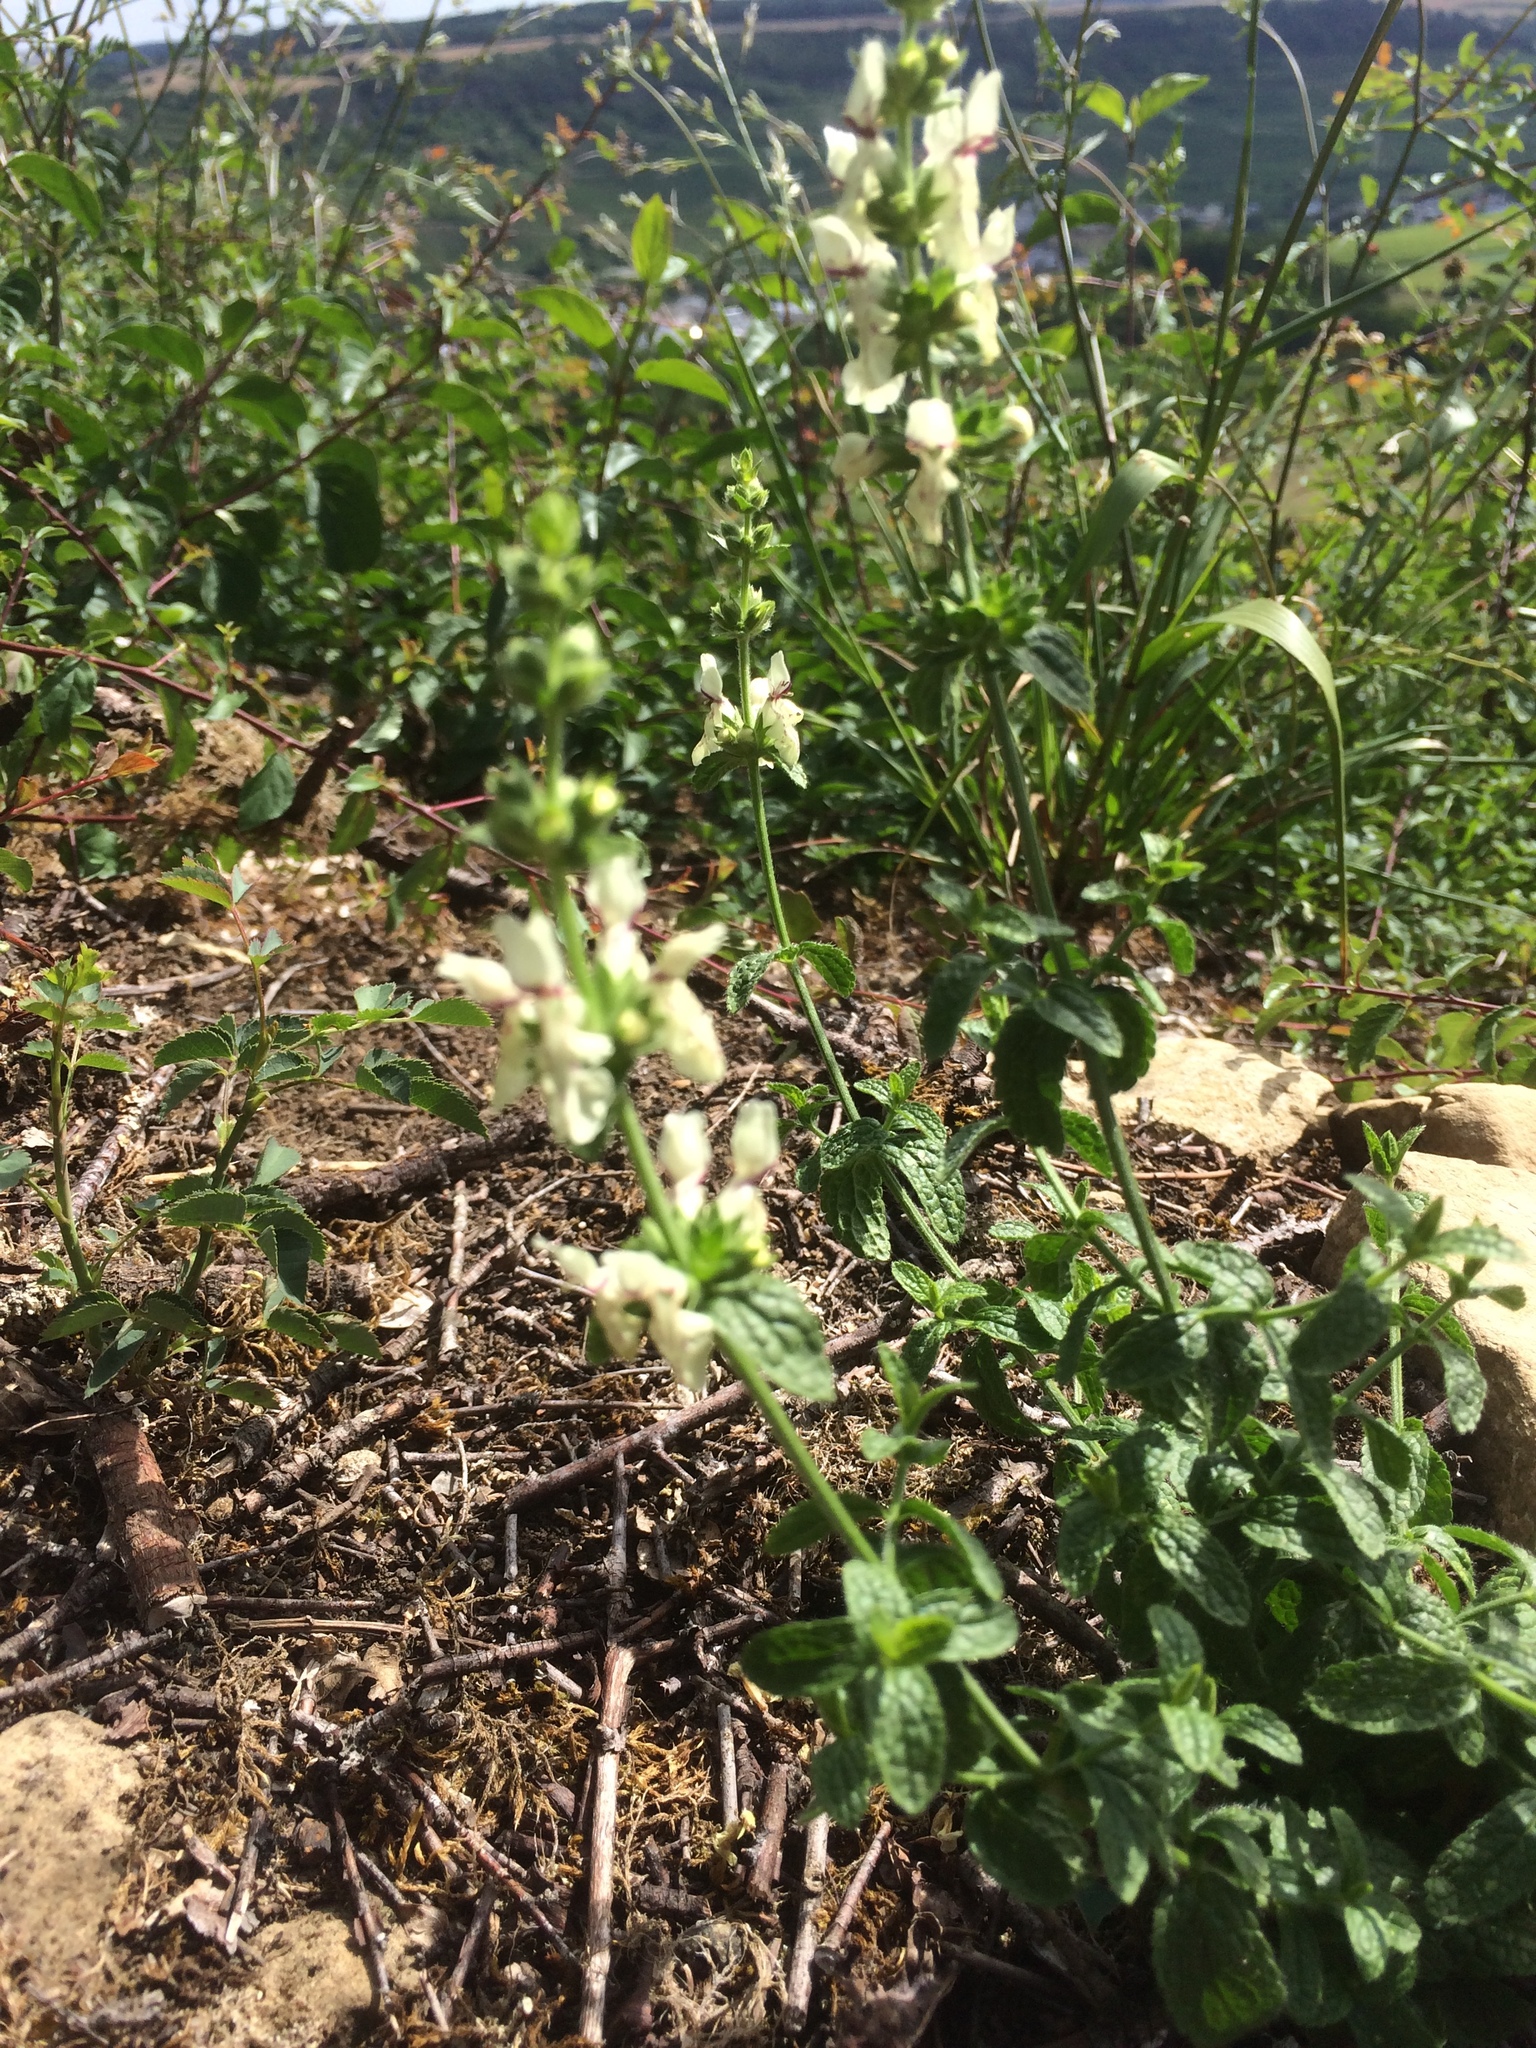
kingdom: Plantae
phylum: Tracheophyta
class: Magnoliopsida
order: Lamiales
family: Lamiaceae
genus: Stachys
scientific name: Stachys recta
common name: Perennial yellow-woundwort
